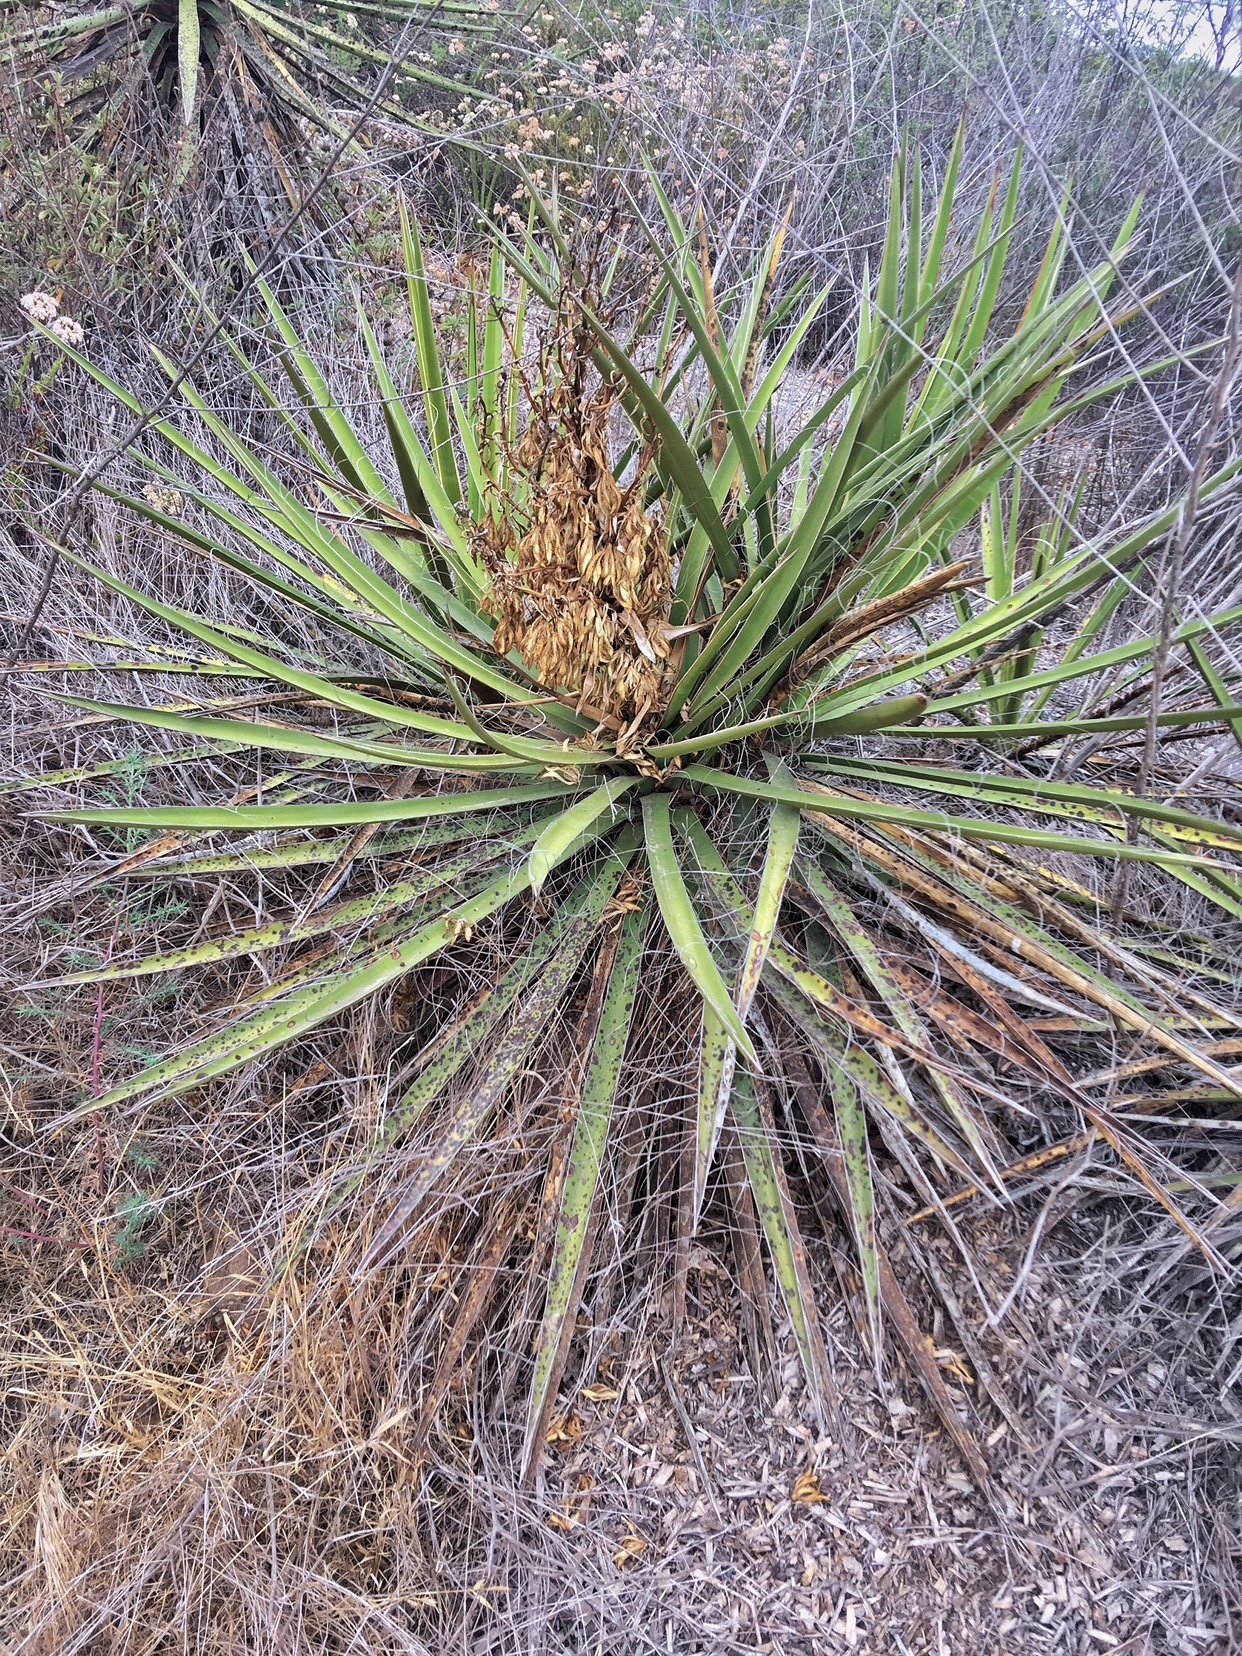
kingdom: Plantae
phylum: Tracheophyta
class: Liliopsida
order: Asparagales
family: Asparagaceae
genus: Yucca
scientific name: Yucca schidigera
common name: Mojave yucca
